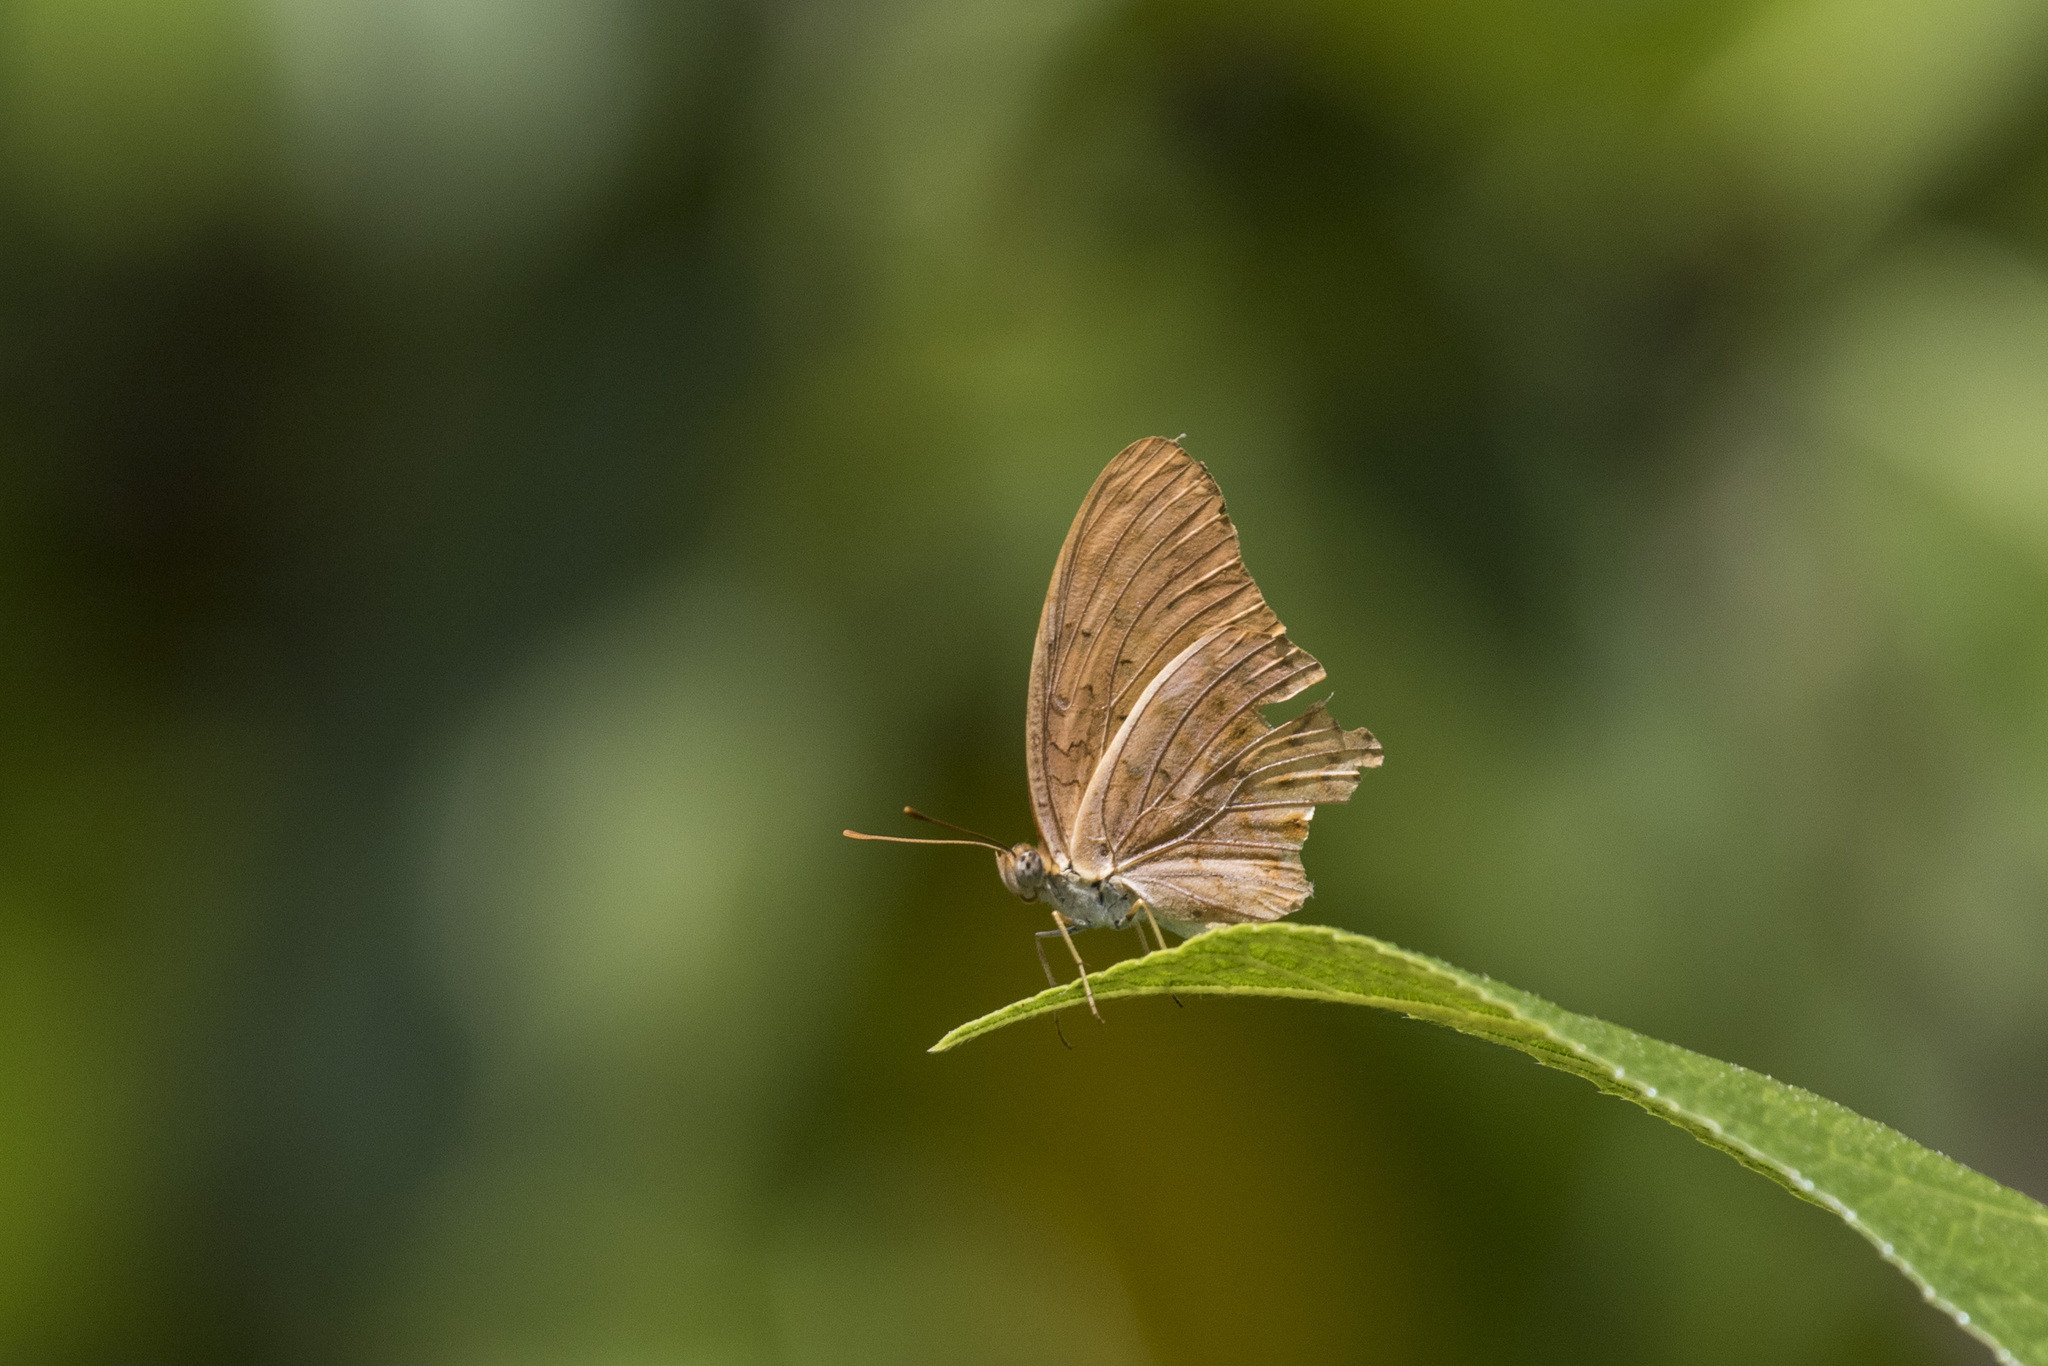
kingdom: Animalia
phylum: Arthropoda
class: Insecta
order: Lepidoptera
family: Nymphalidae
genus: Phalanta
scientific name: Phalanta phalantha
